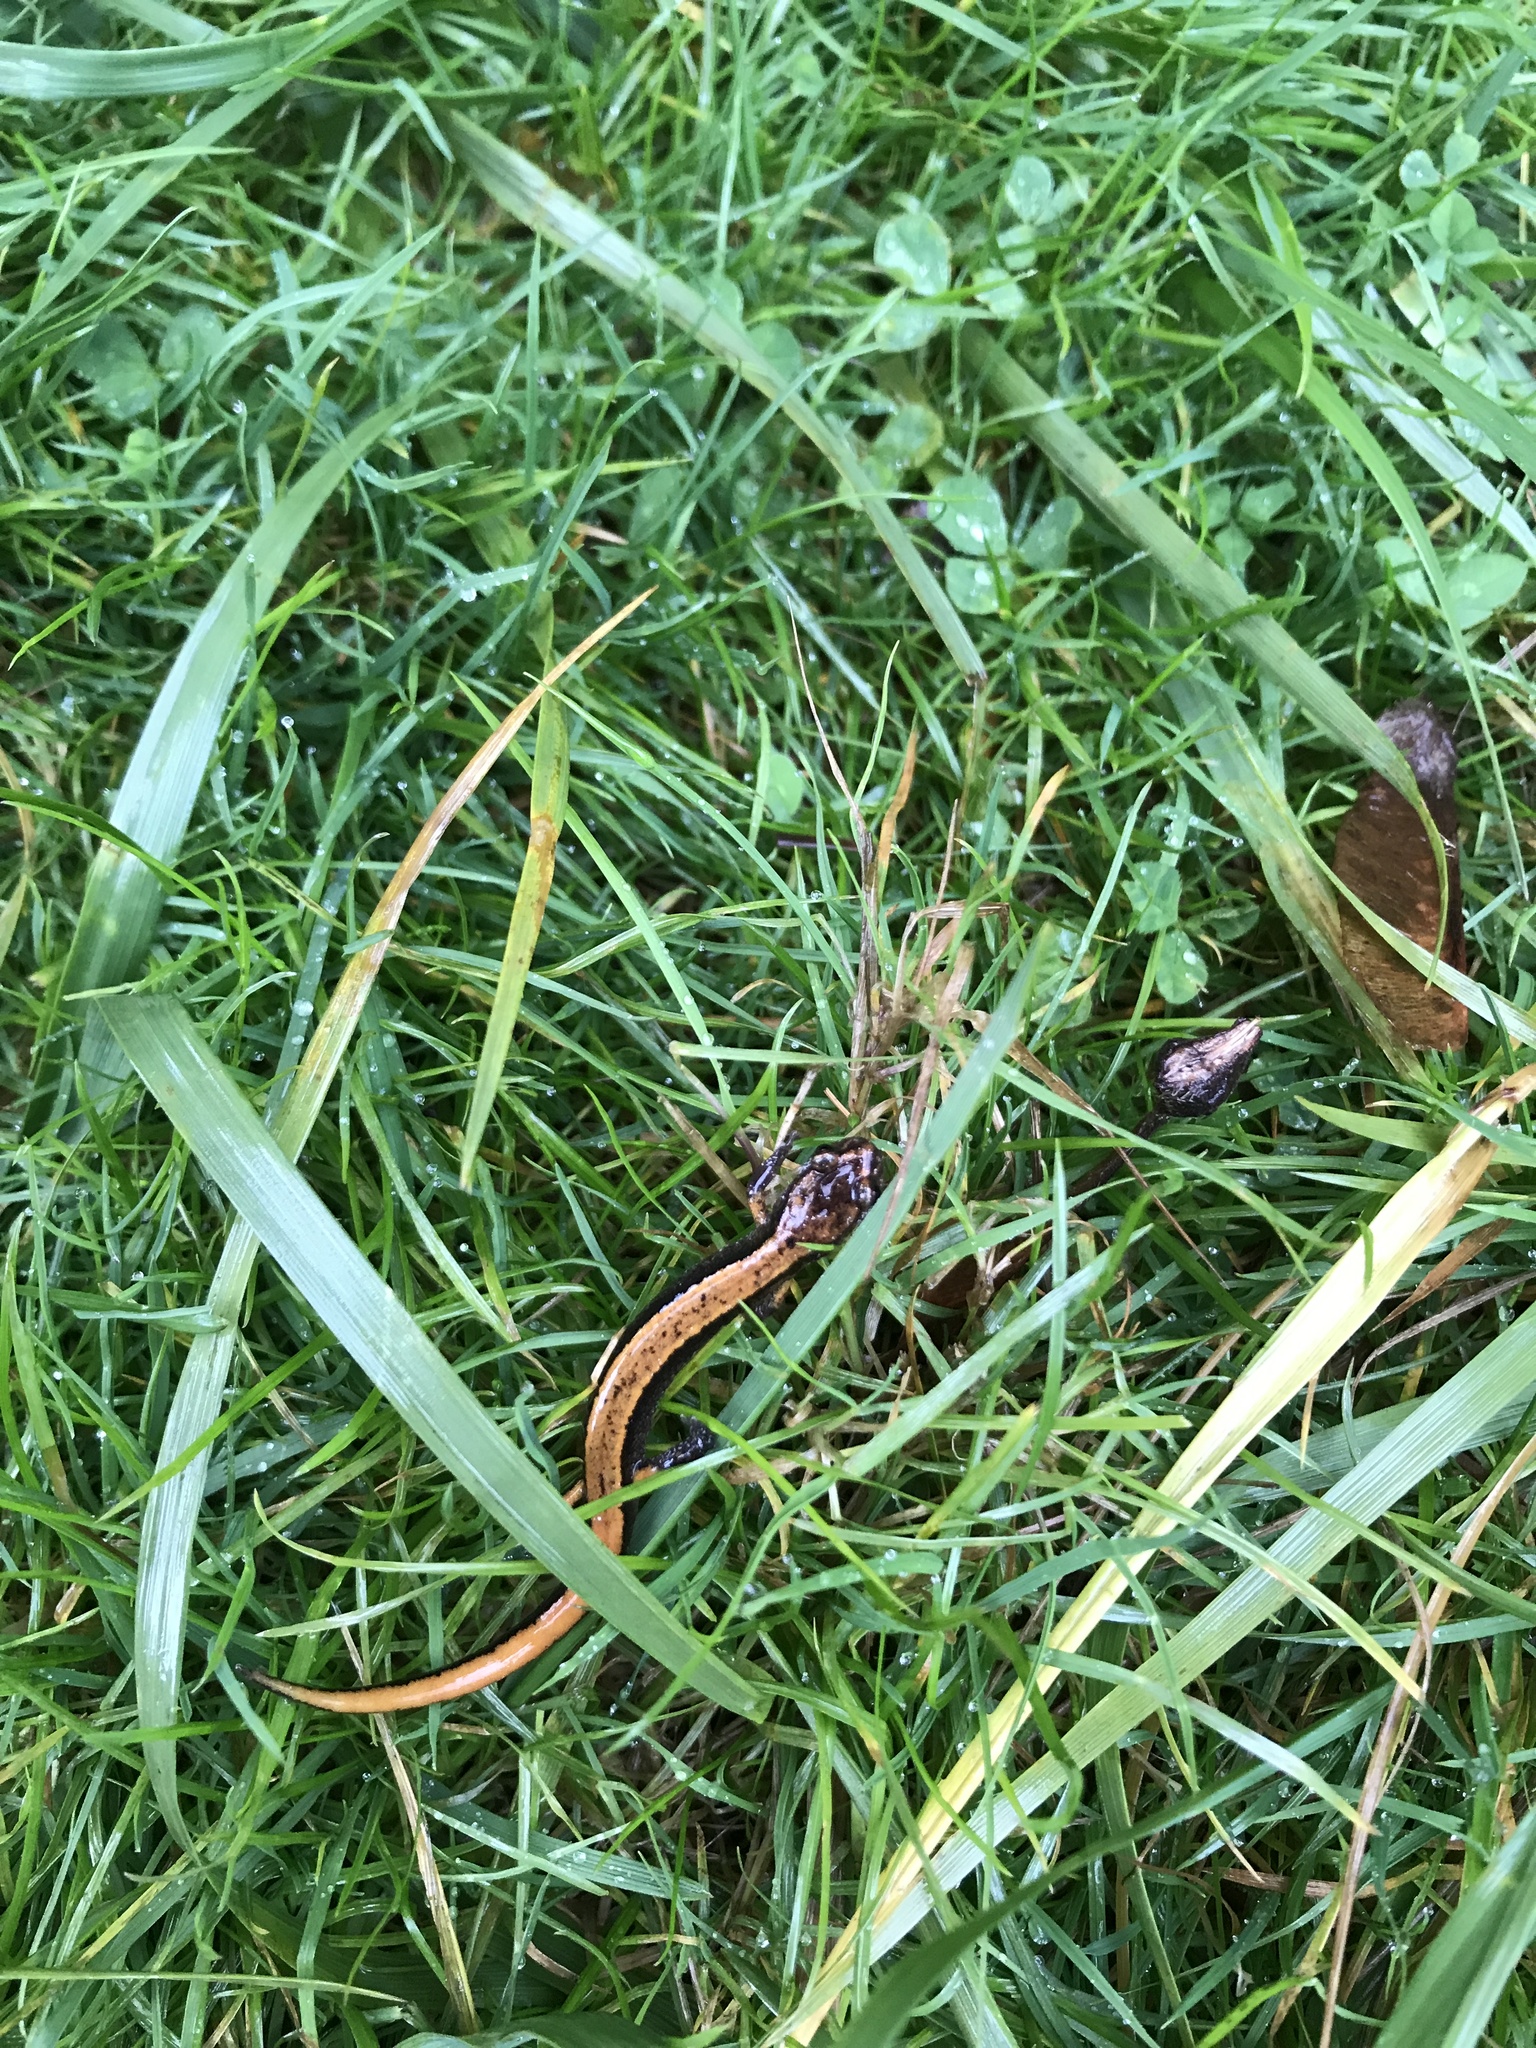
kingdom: Animalia
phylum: Chordata
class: Amphibia
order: Caudata
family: Plethodontidae
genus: Plethodon
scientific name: Plethodon vehiculum
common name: Western red-backed salamander
